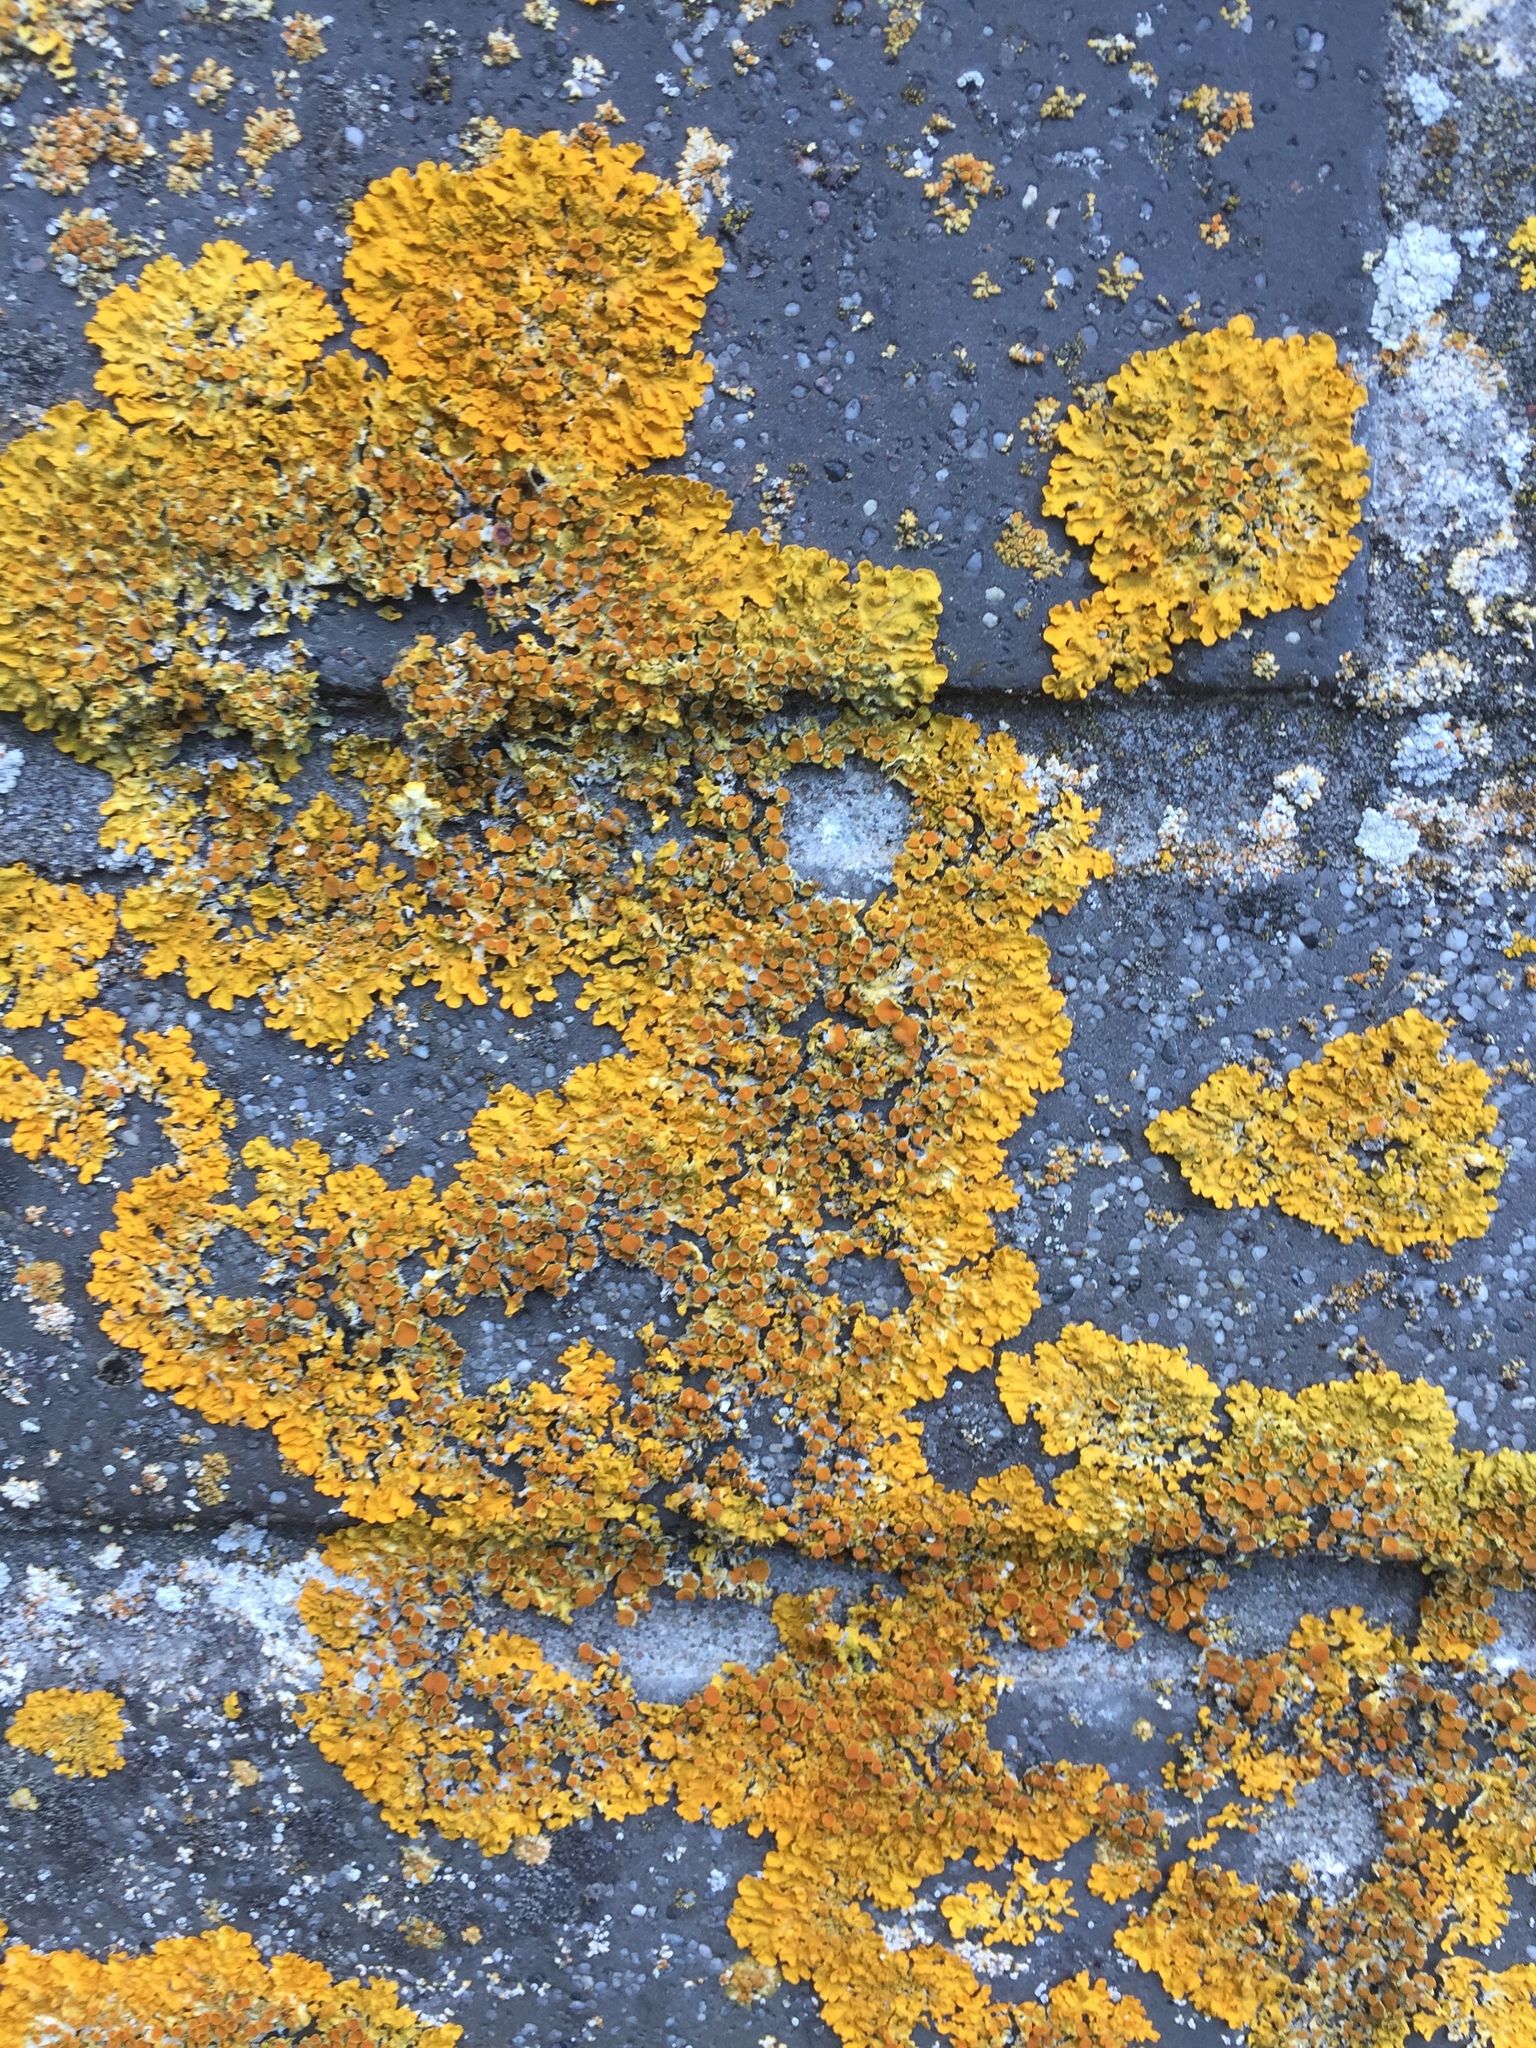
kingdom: Fungi
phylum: Ascomycota
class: Lecanoromycetes
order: Teloschistales
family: Teloschistaceae
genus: Xanthoria
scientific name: Xanthoria parietina
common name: Common orange lichen
